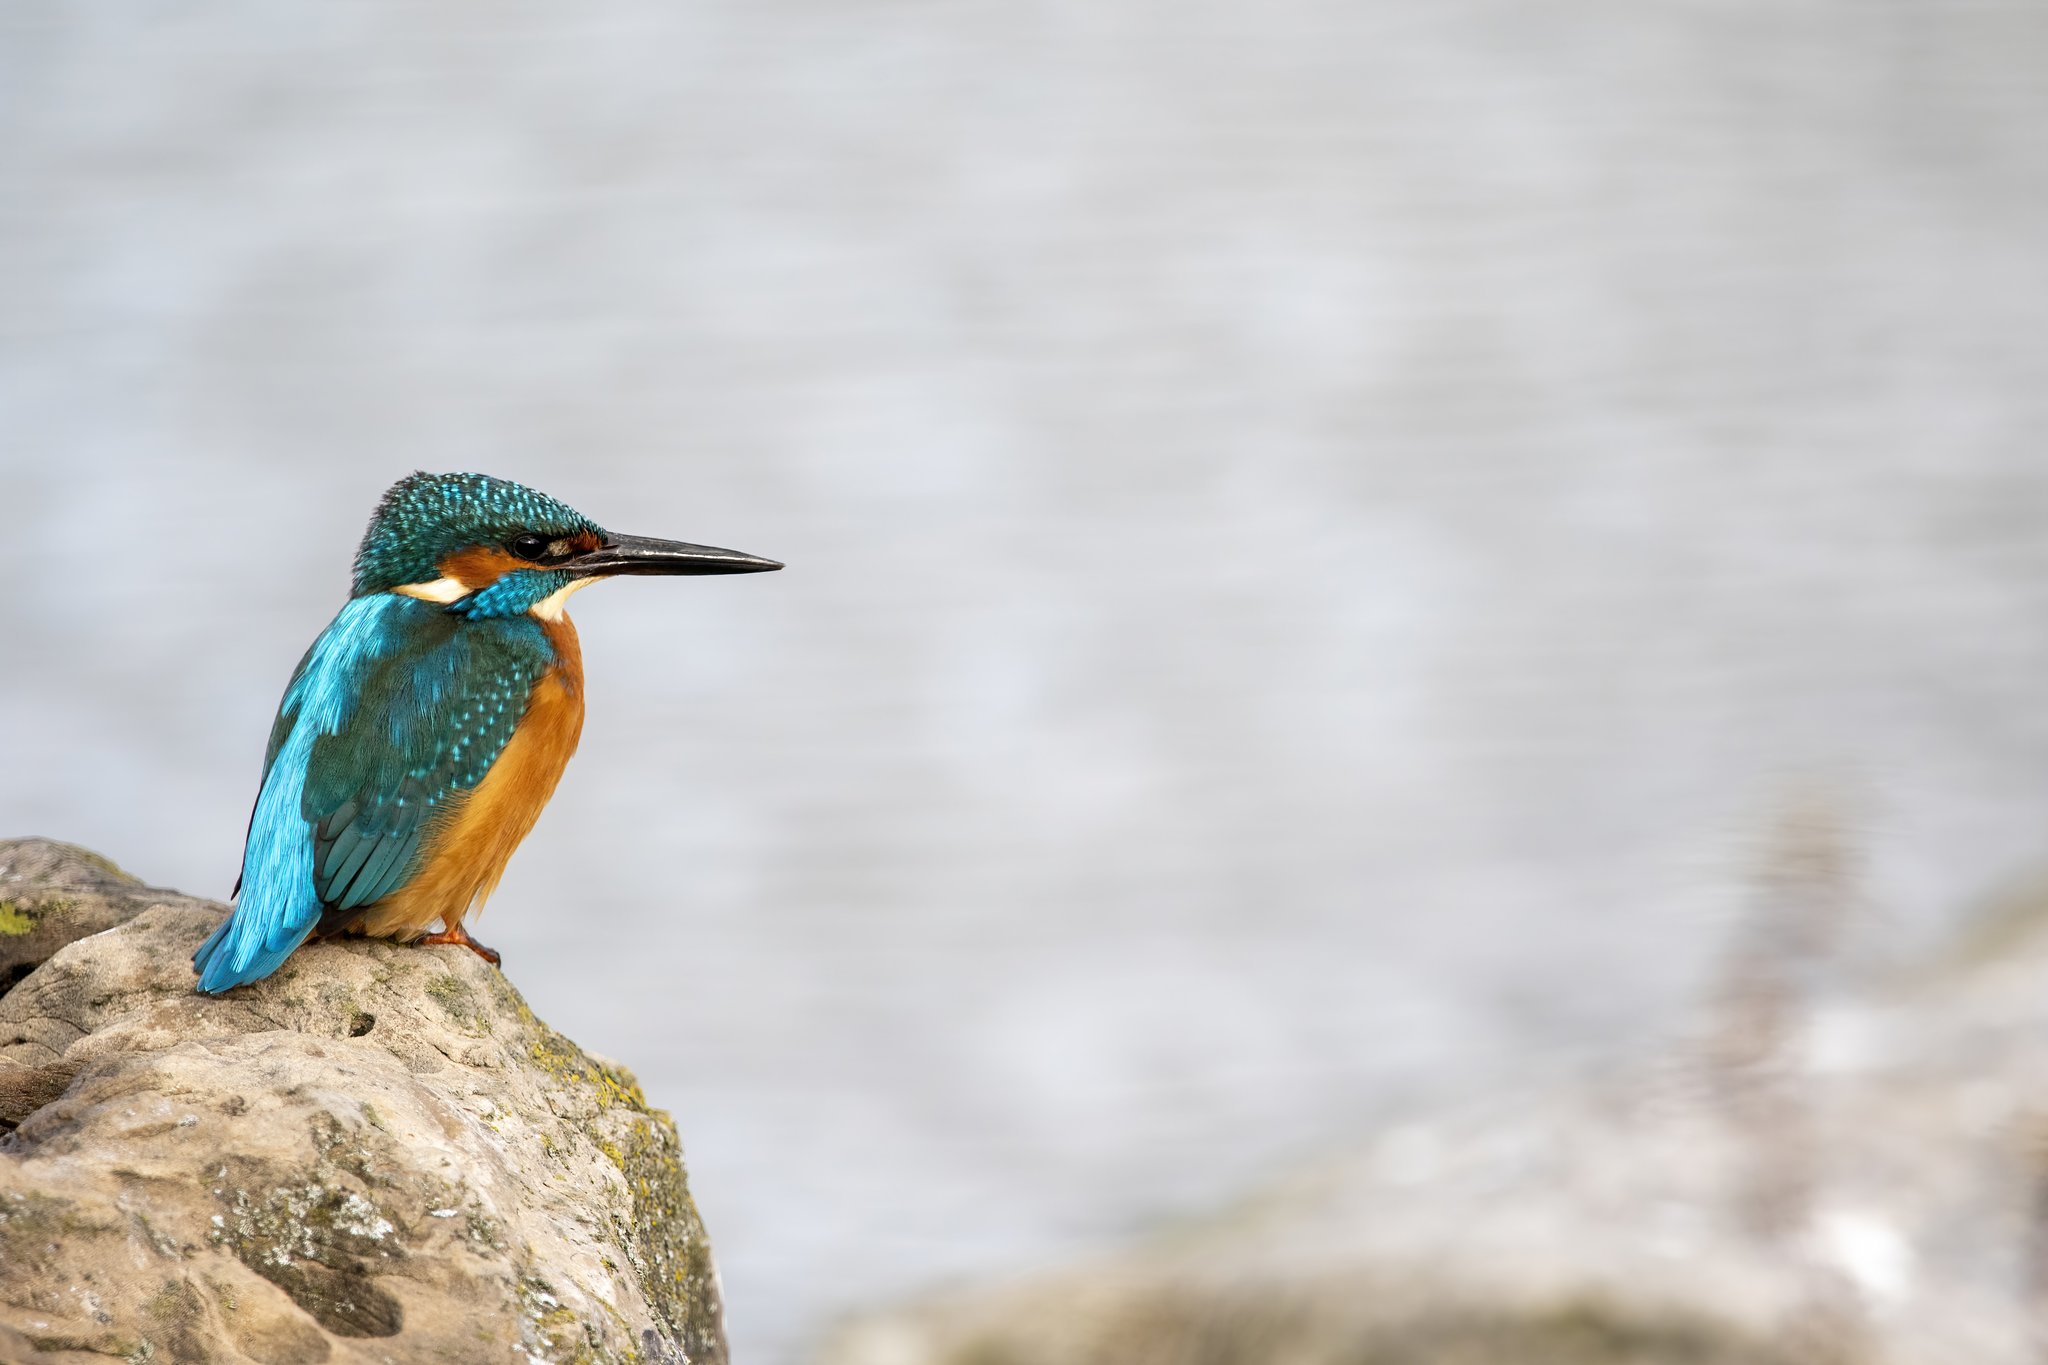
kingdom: Animalia
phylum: Chordata
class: Aves
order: Coraciiformes
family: Alcedinidae
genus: Alcedo
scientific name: Alcedo atthis
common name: Common kingfisher
